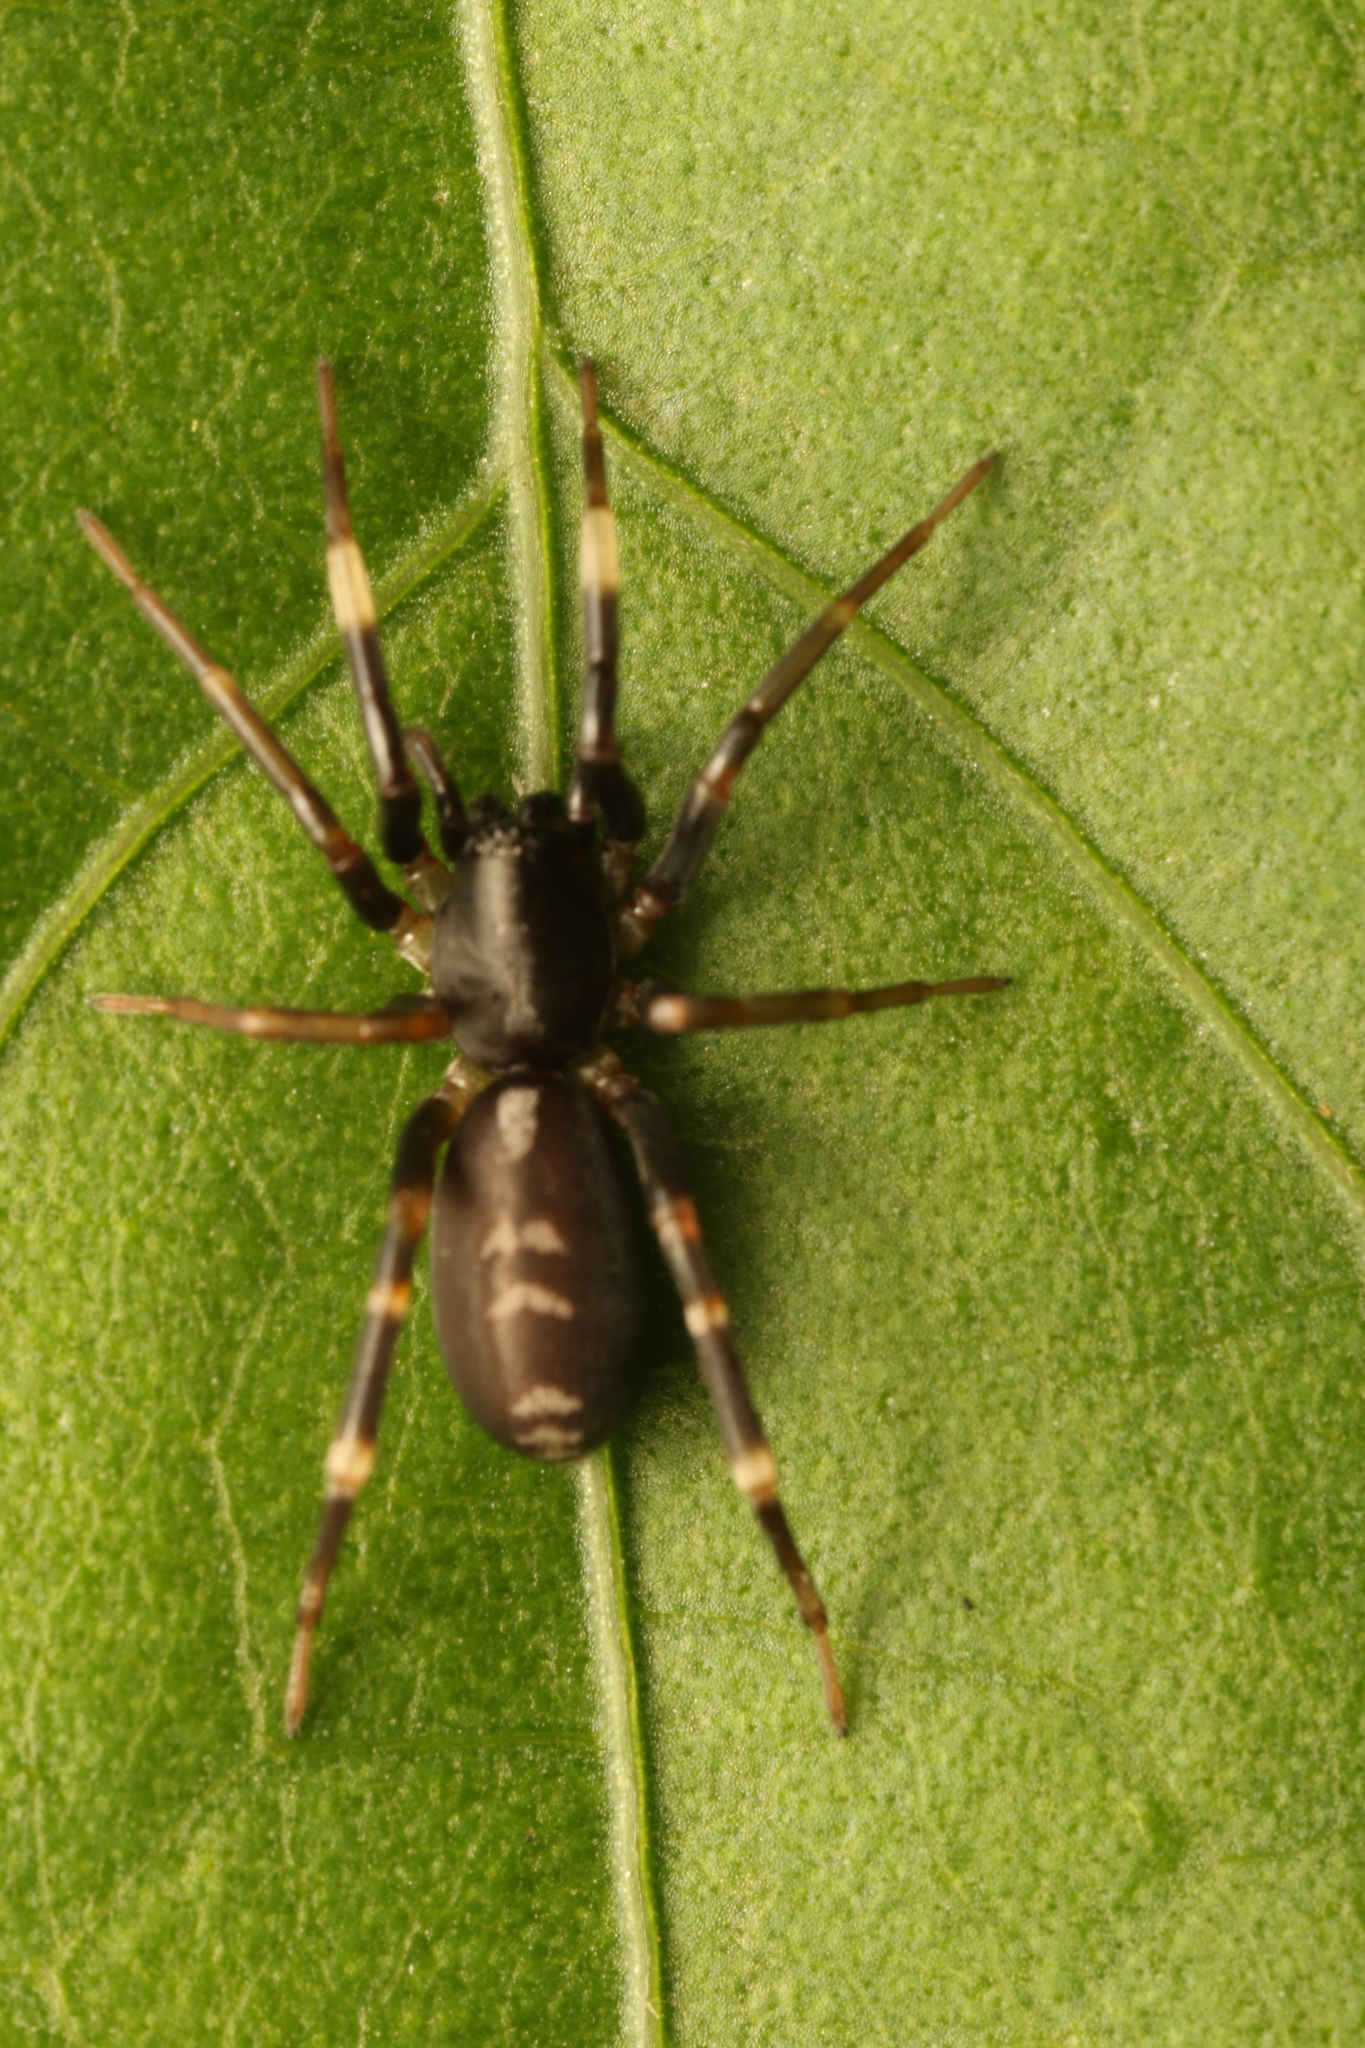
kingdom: Animalia
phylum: Arthropoda
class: Arachnida
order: Araneae
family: Corinnidae
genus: Ianduba
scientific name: Ianduba varia
